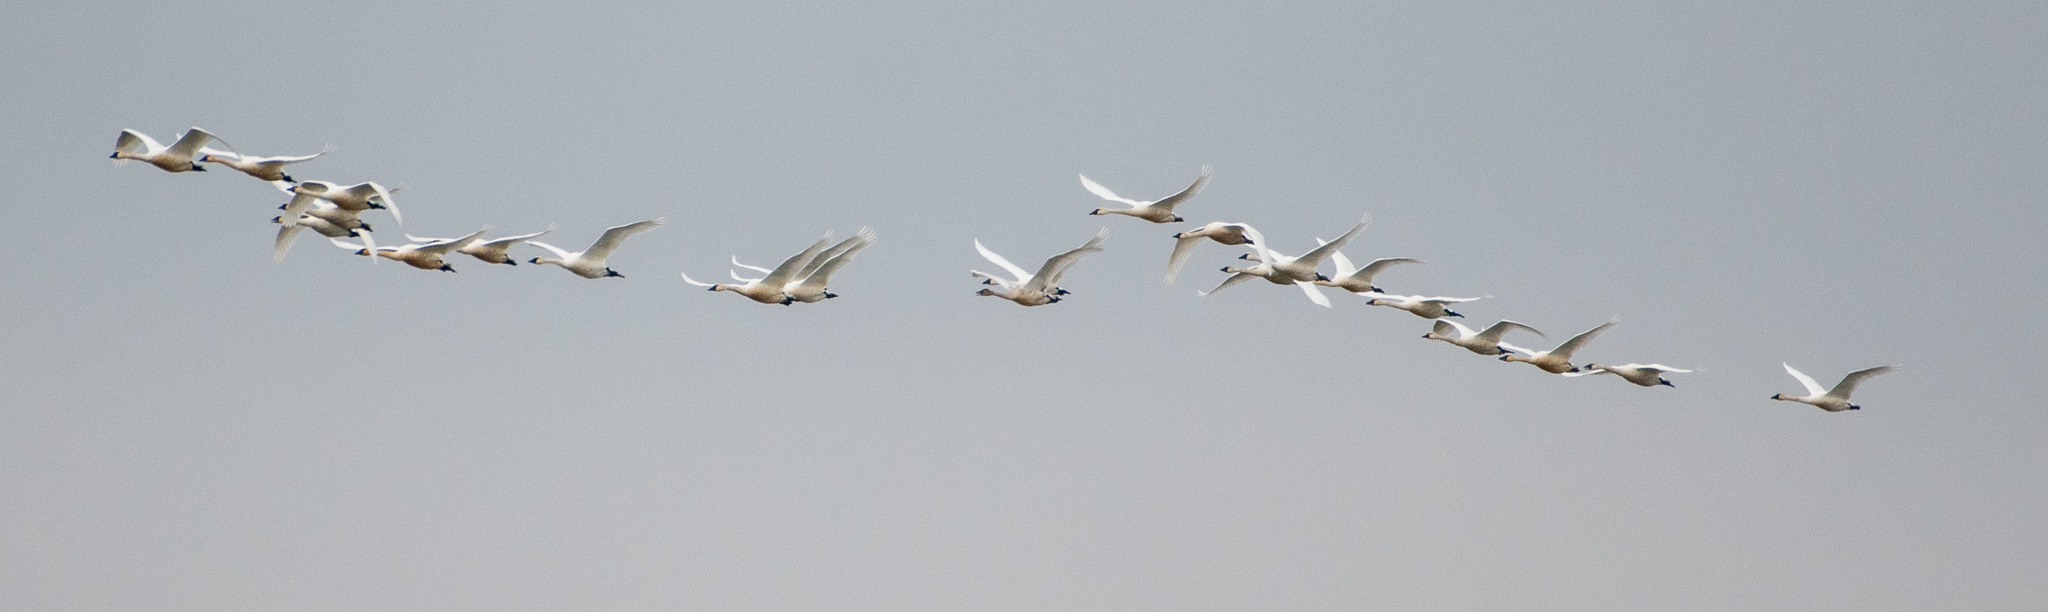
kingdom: Animalia
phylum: Chordata
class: Aves
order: Anseriformes
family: Anatidae
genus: Cygnus
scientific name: Cygnus columbianus
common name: Tundra swan
